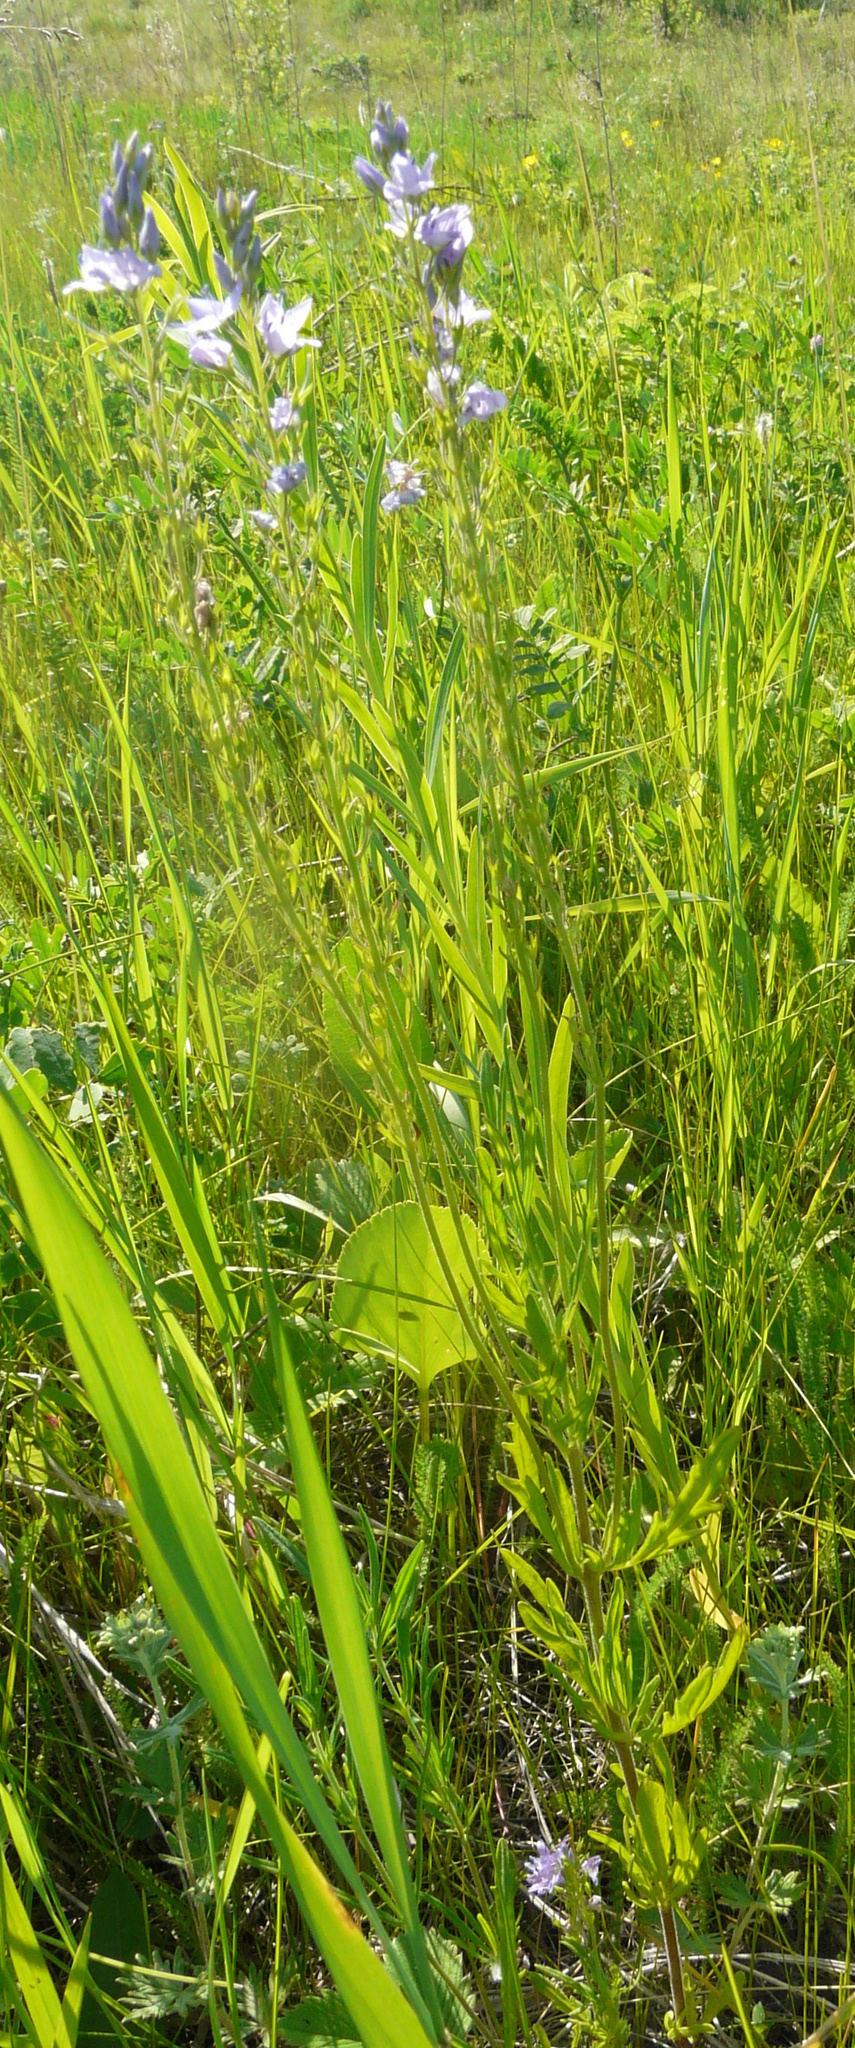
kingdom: Plantae
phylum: Tracheophyta
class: Magnoliopsida
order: Lamiales
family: Plantaginaceae
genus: Veronica
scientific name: Veronica austriaca
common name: Large speedwell
